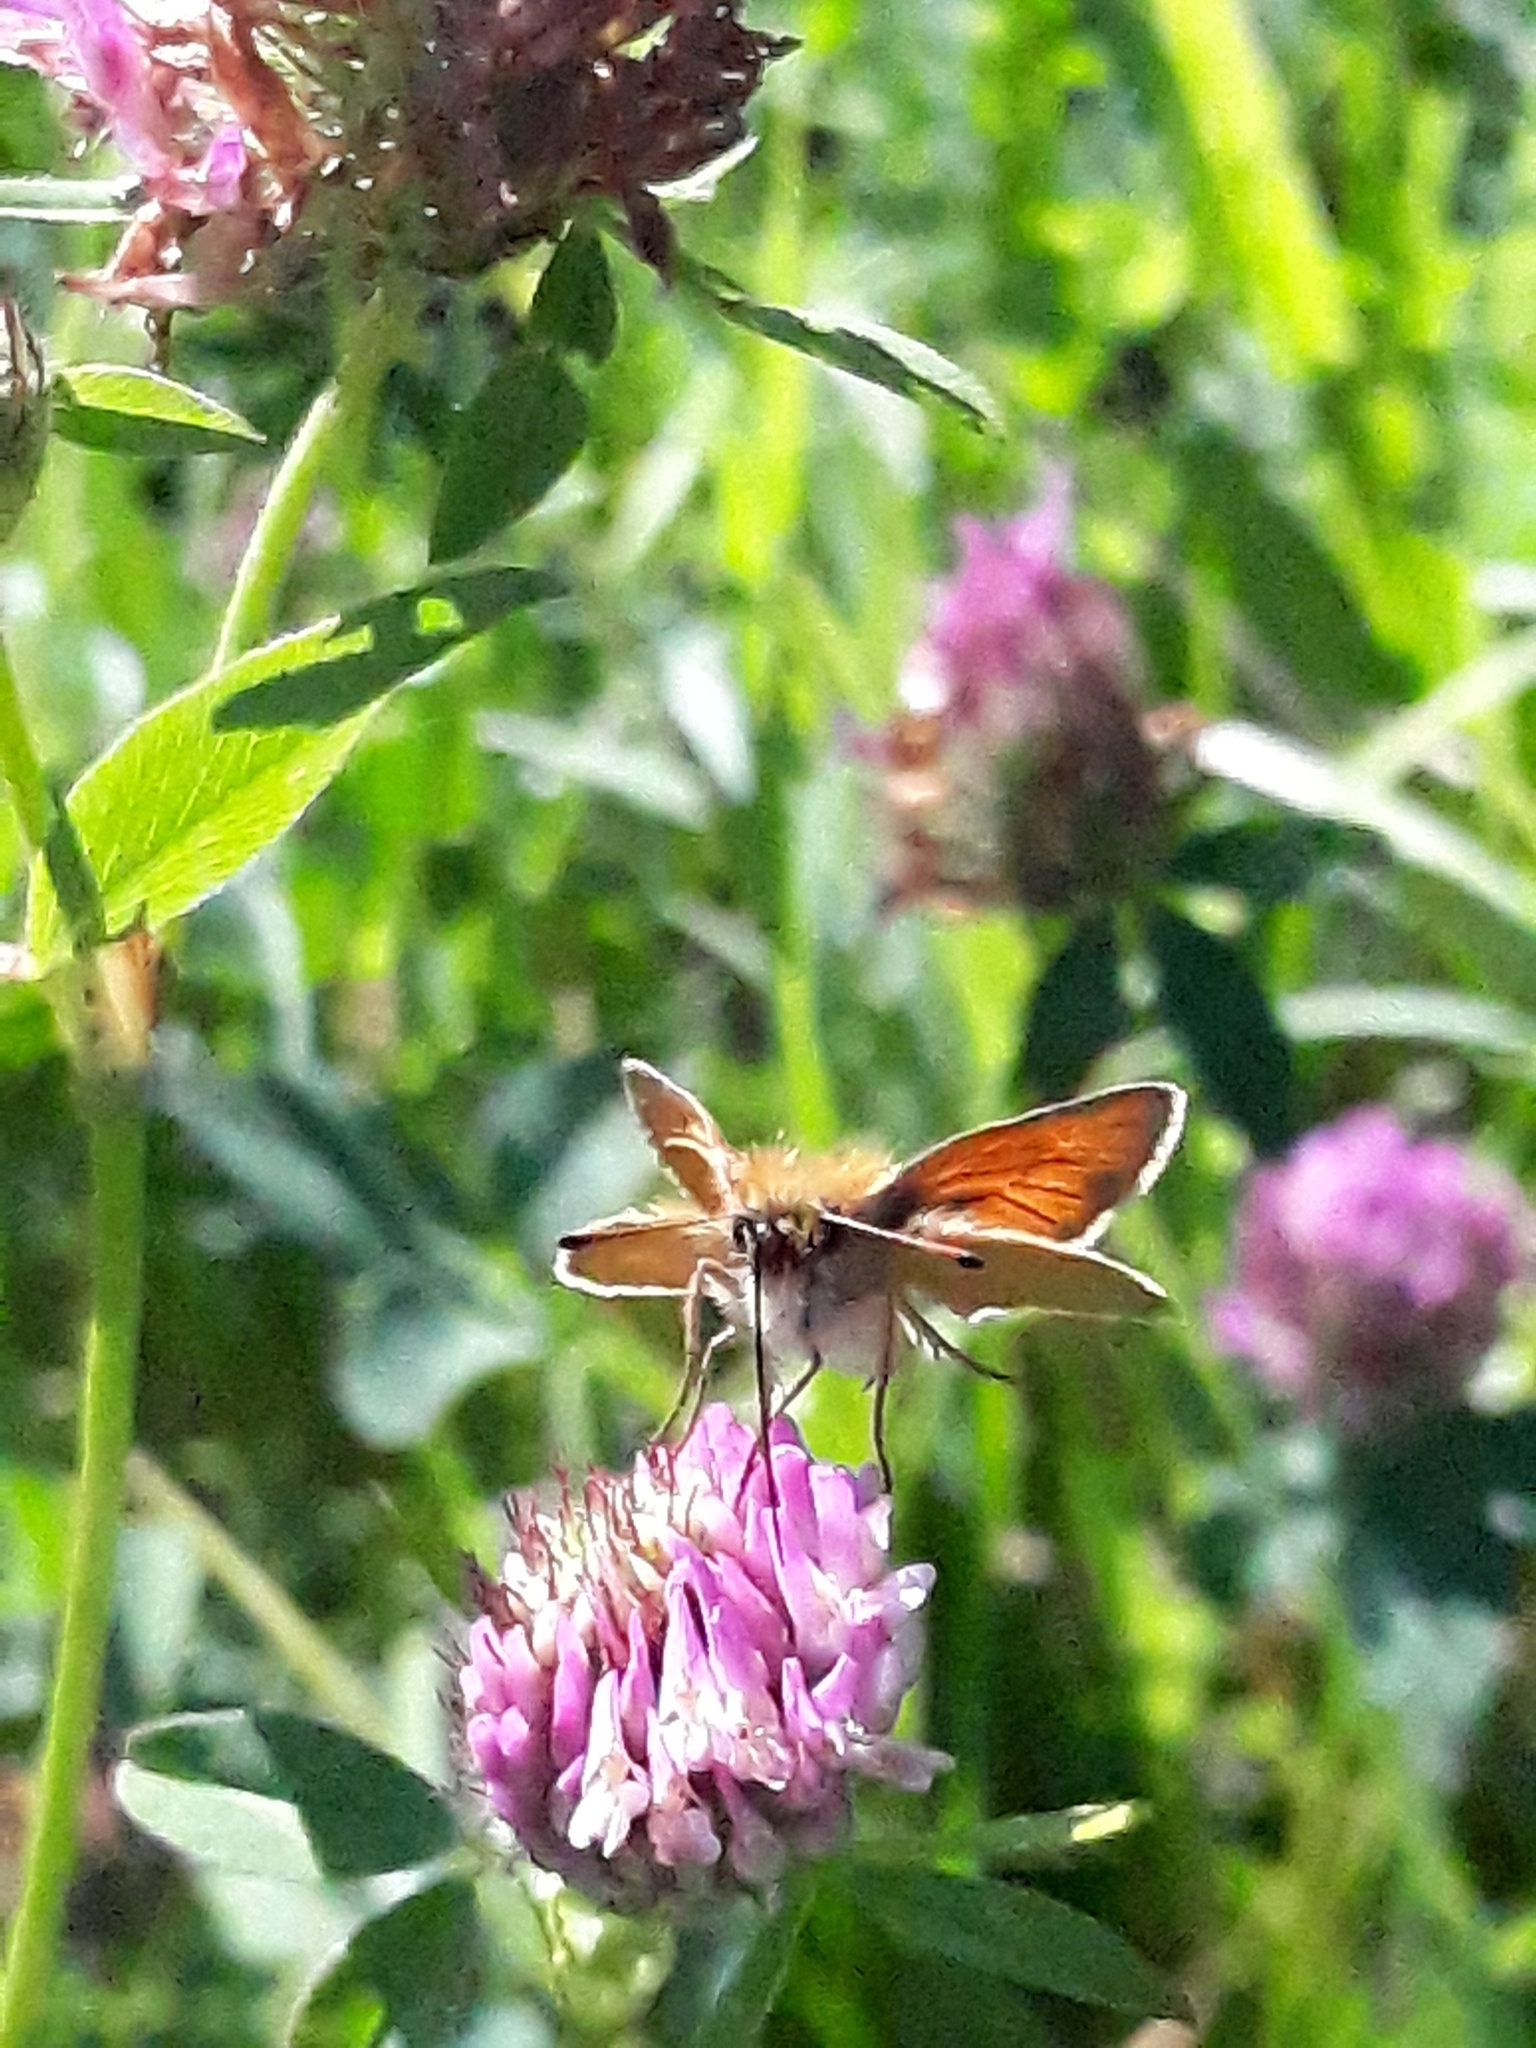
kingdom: Animalia
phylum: Arthropoda
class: Insecta
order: Lepidoptera
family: Hesperiidae
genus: Thymelicus
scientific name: Thymelicus lineola
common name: Essex skipper
